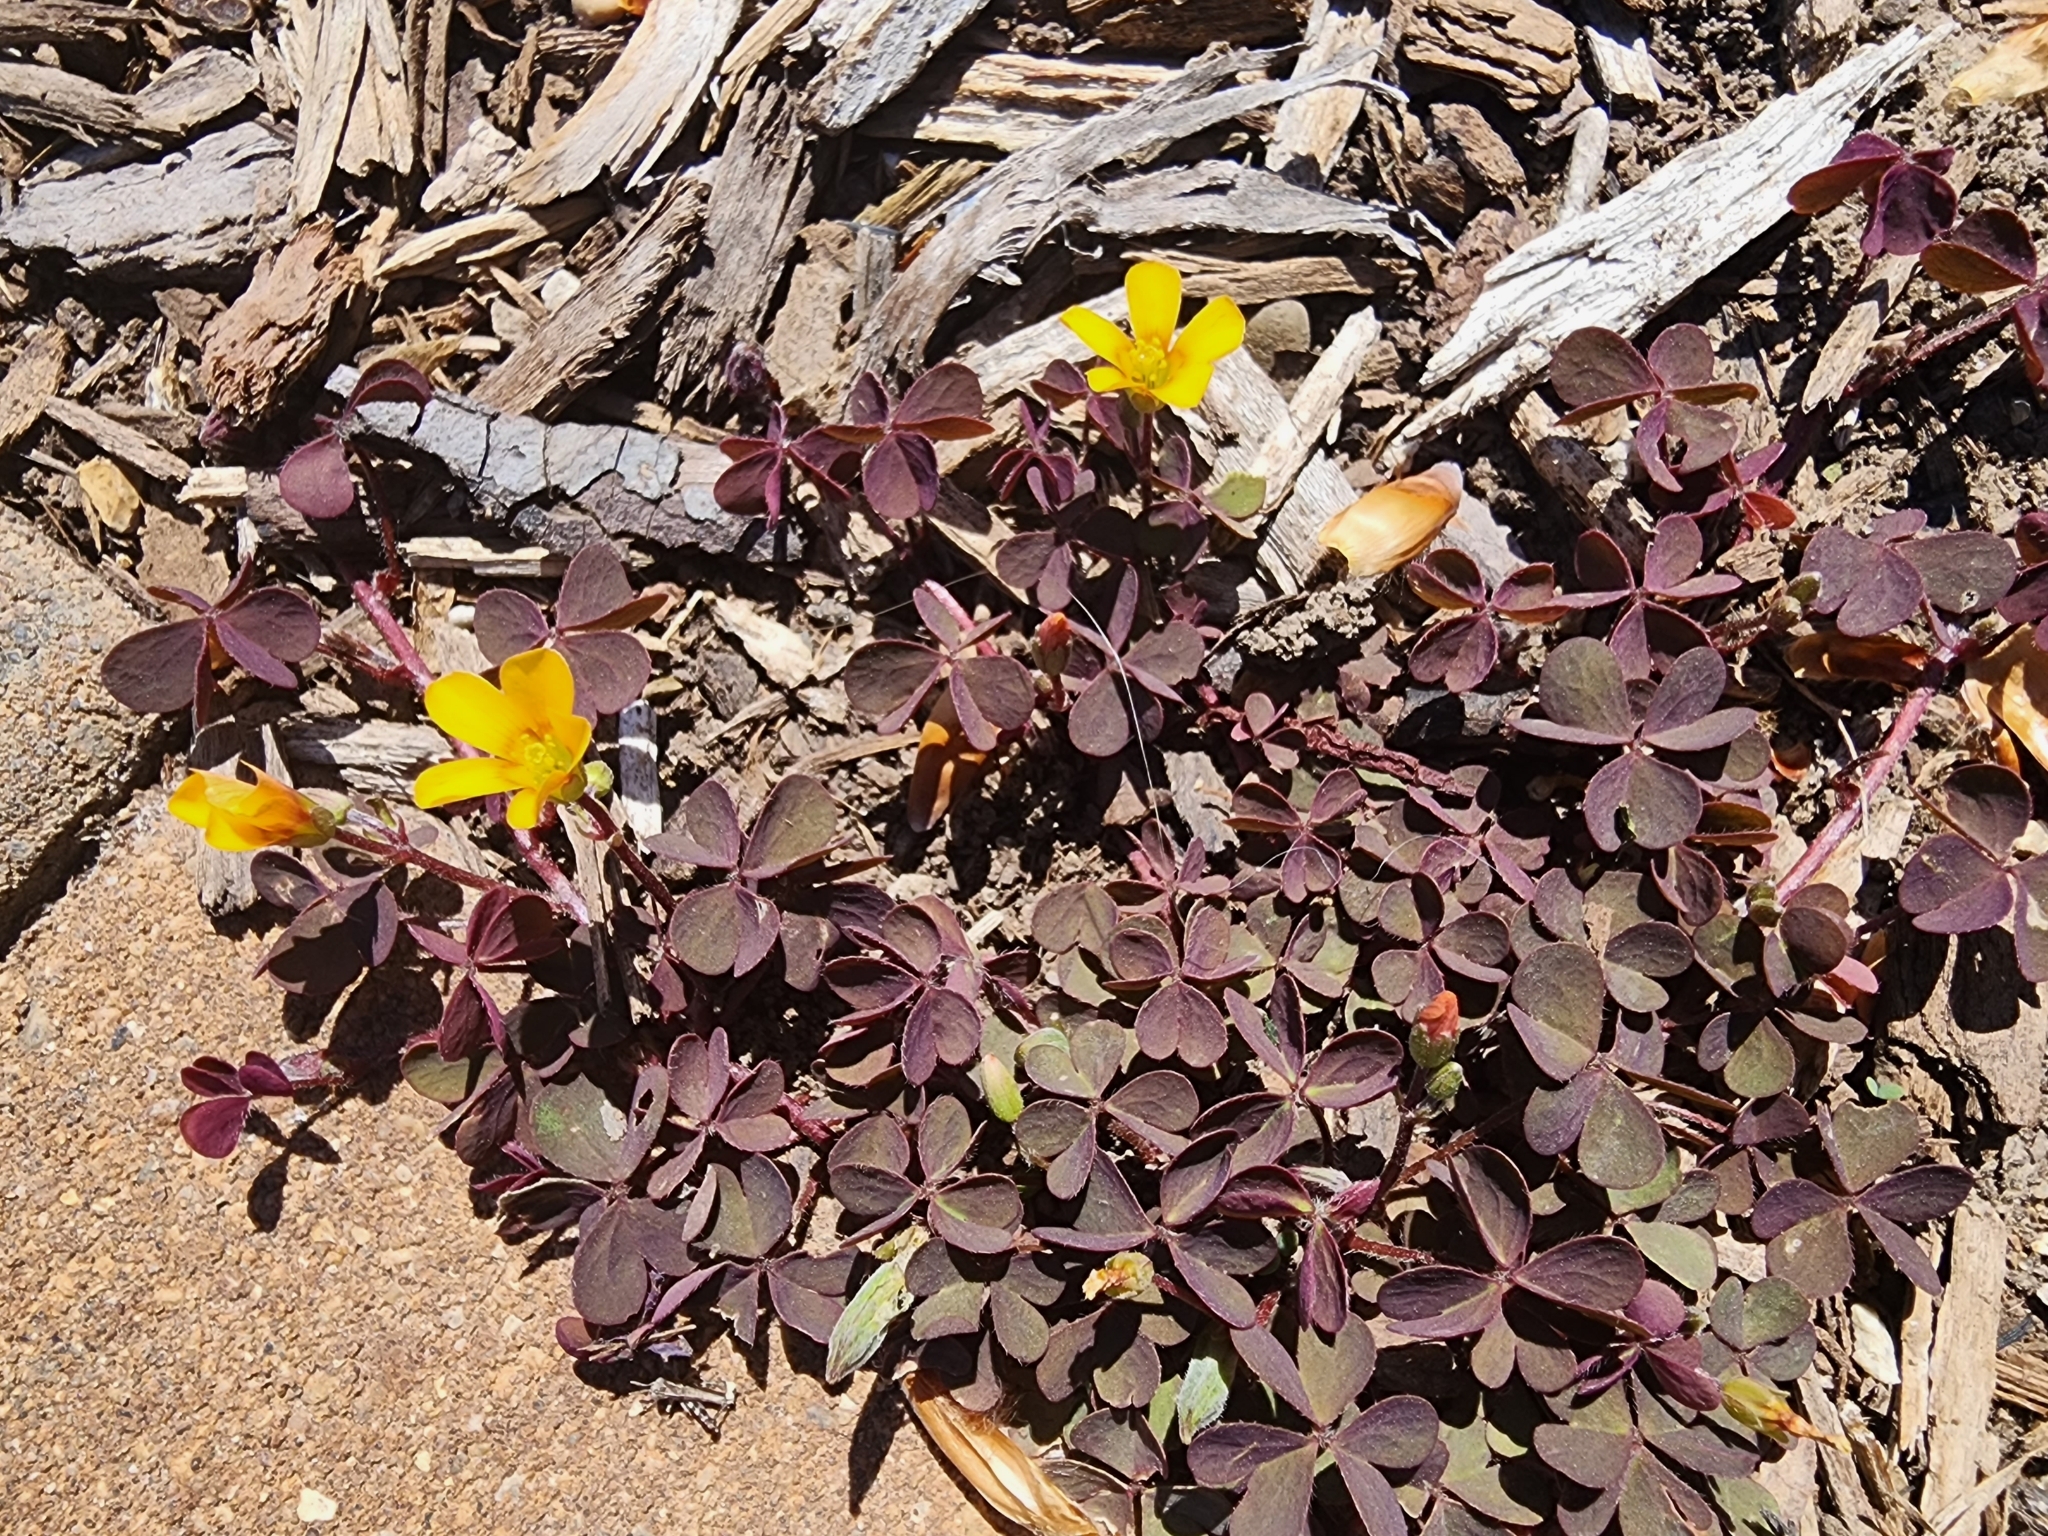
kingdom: Plantae
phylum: Tracheophyta
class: Magnoliopsida
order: Oxalidales
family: Oxalidaceae
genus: Oxalis
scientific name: Oxalis corniculata
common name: Procumbent yellow-sorrel
